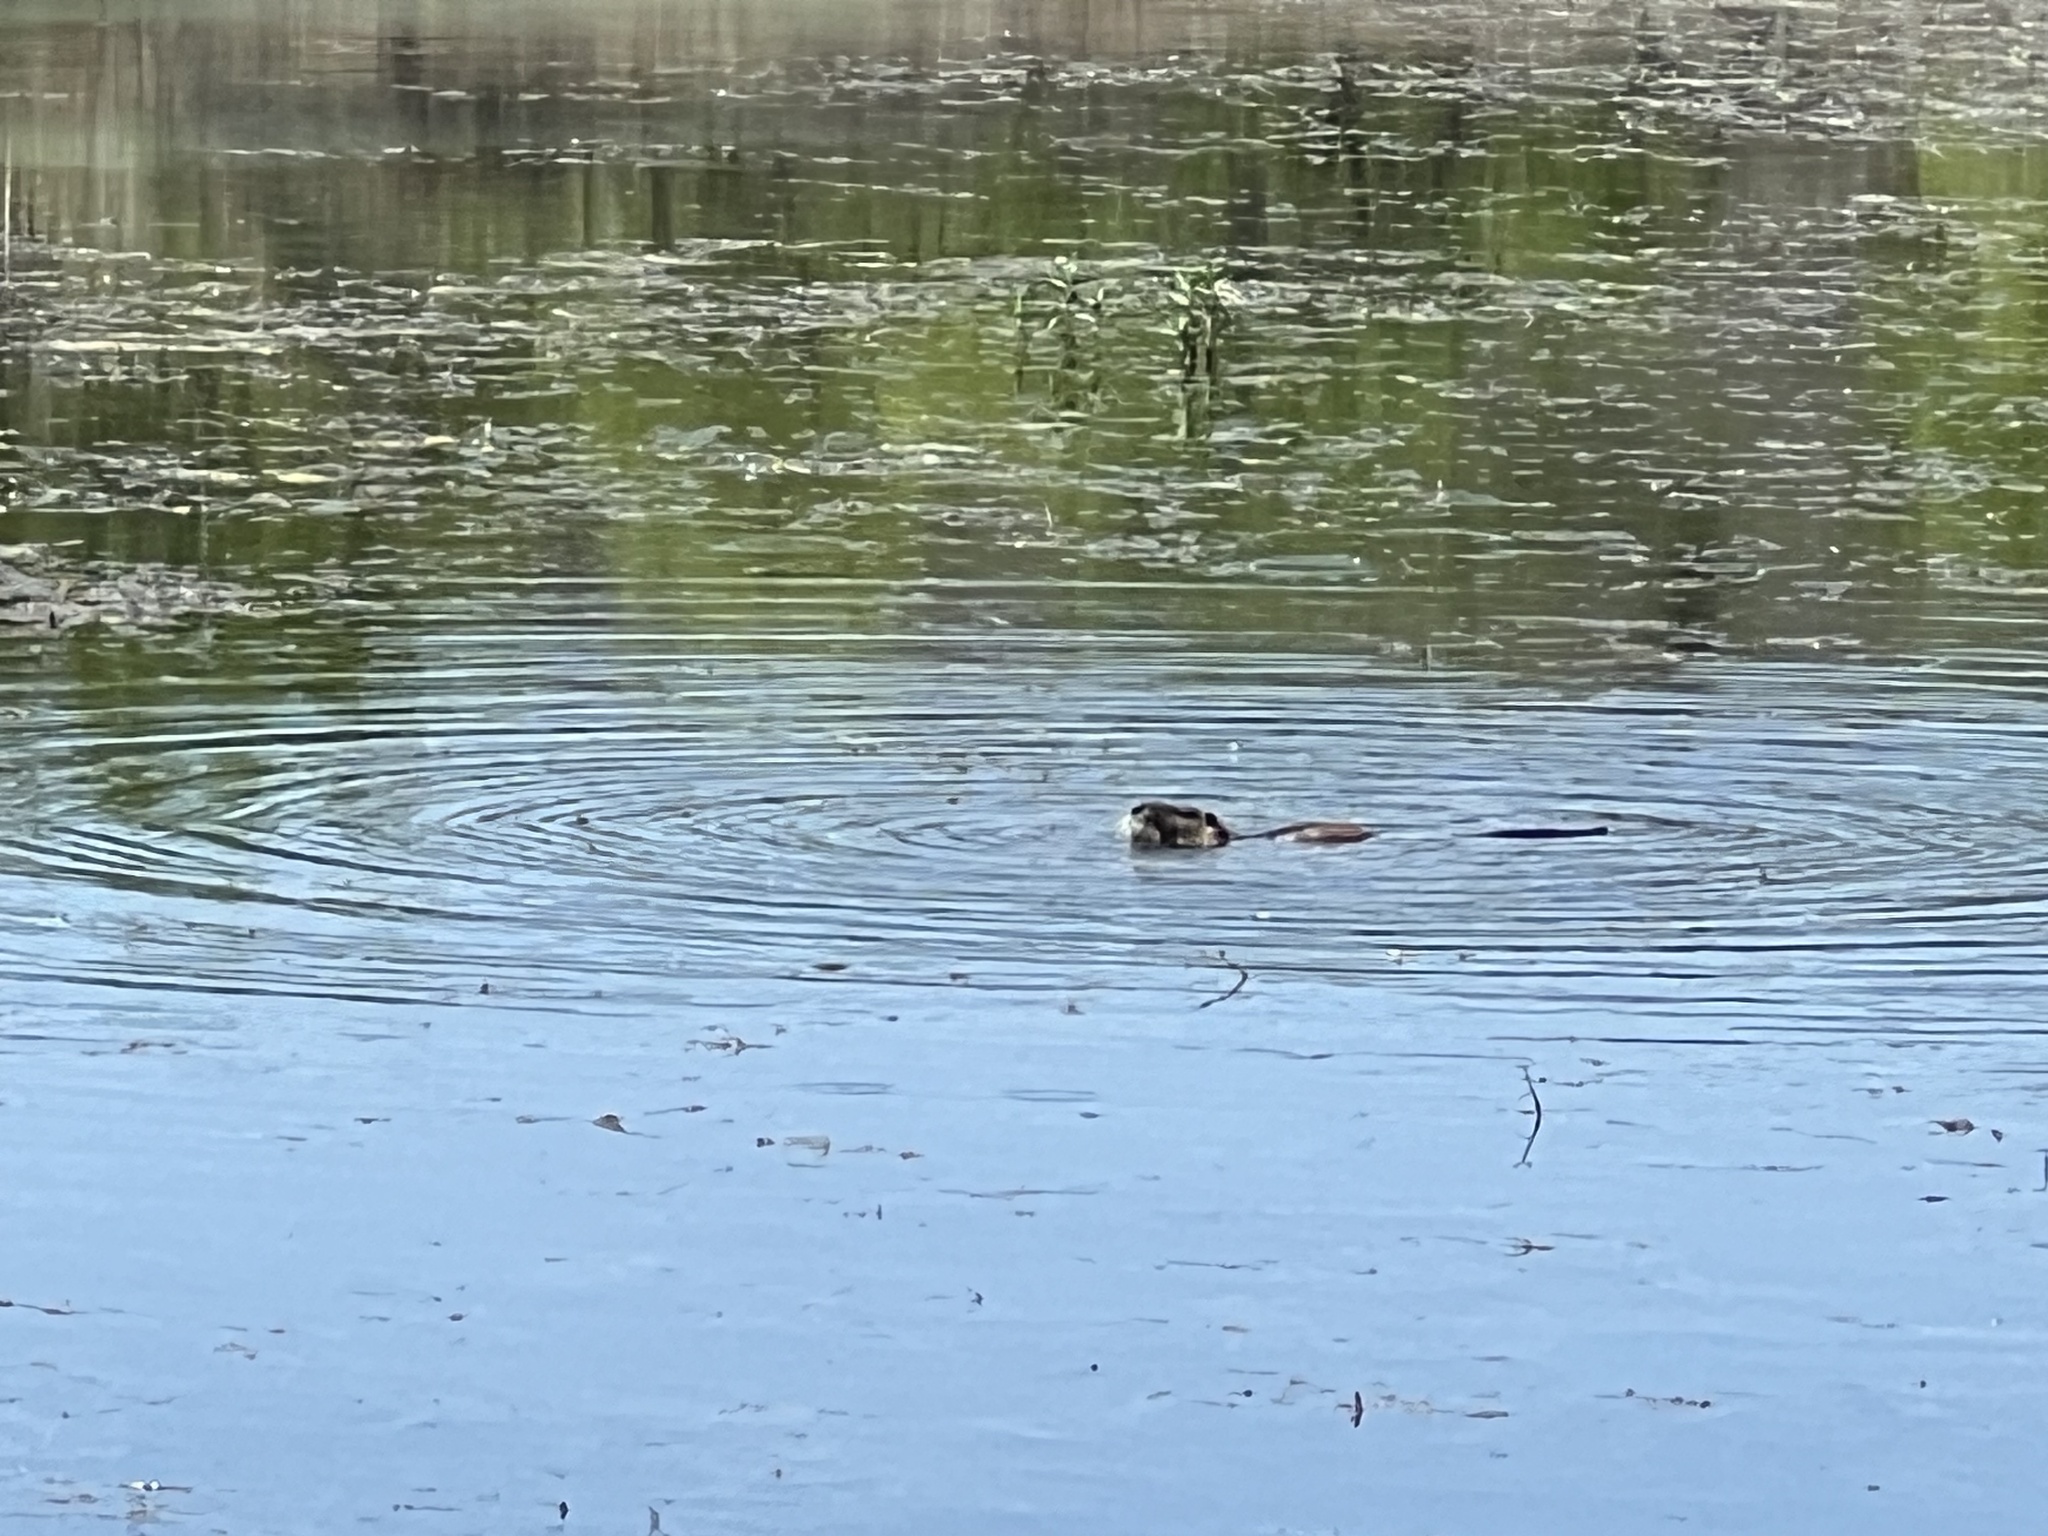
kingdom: Animalia
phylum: Chordata
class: Mammalia
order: Rodentia
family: Castoridae
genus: Castor
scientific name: Castor canadensis
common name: American beaver
